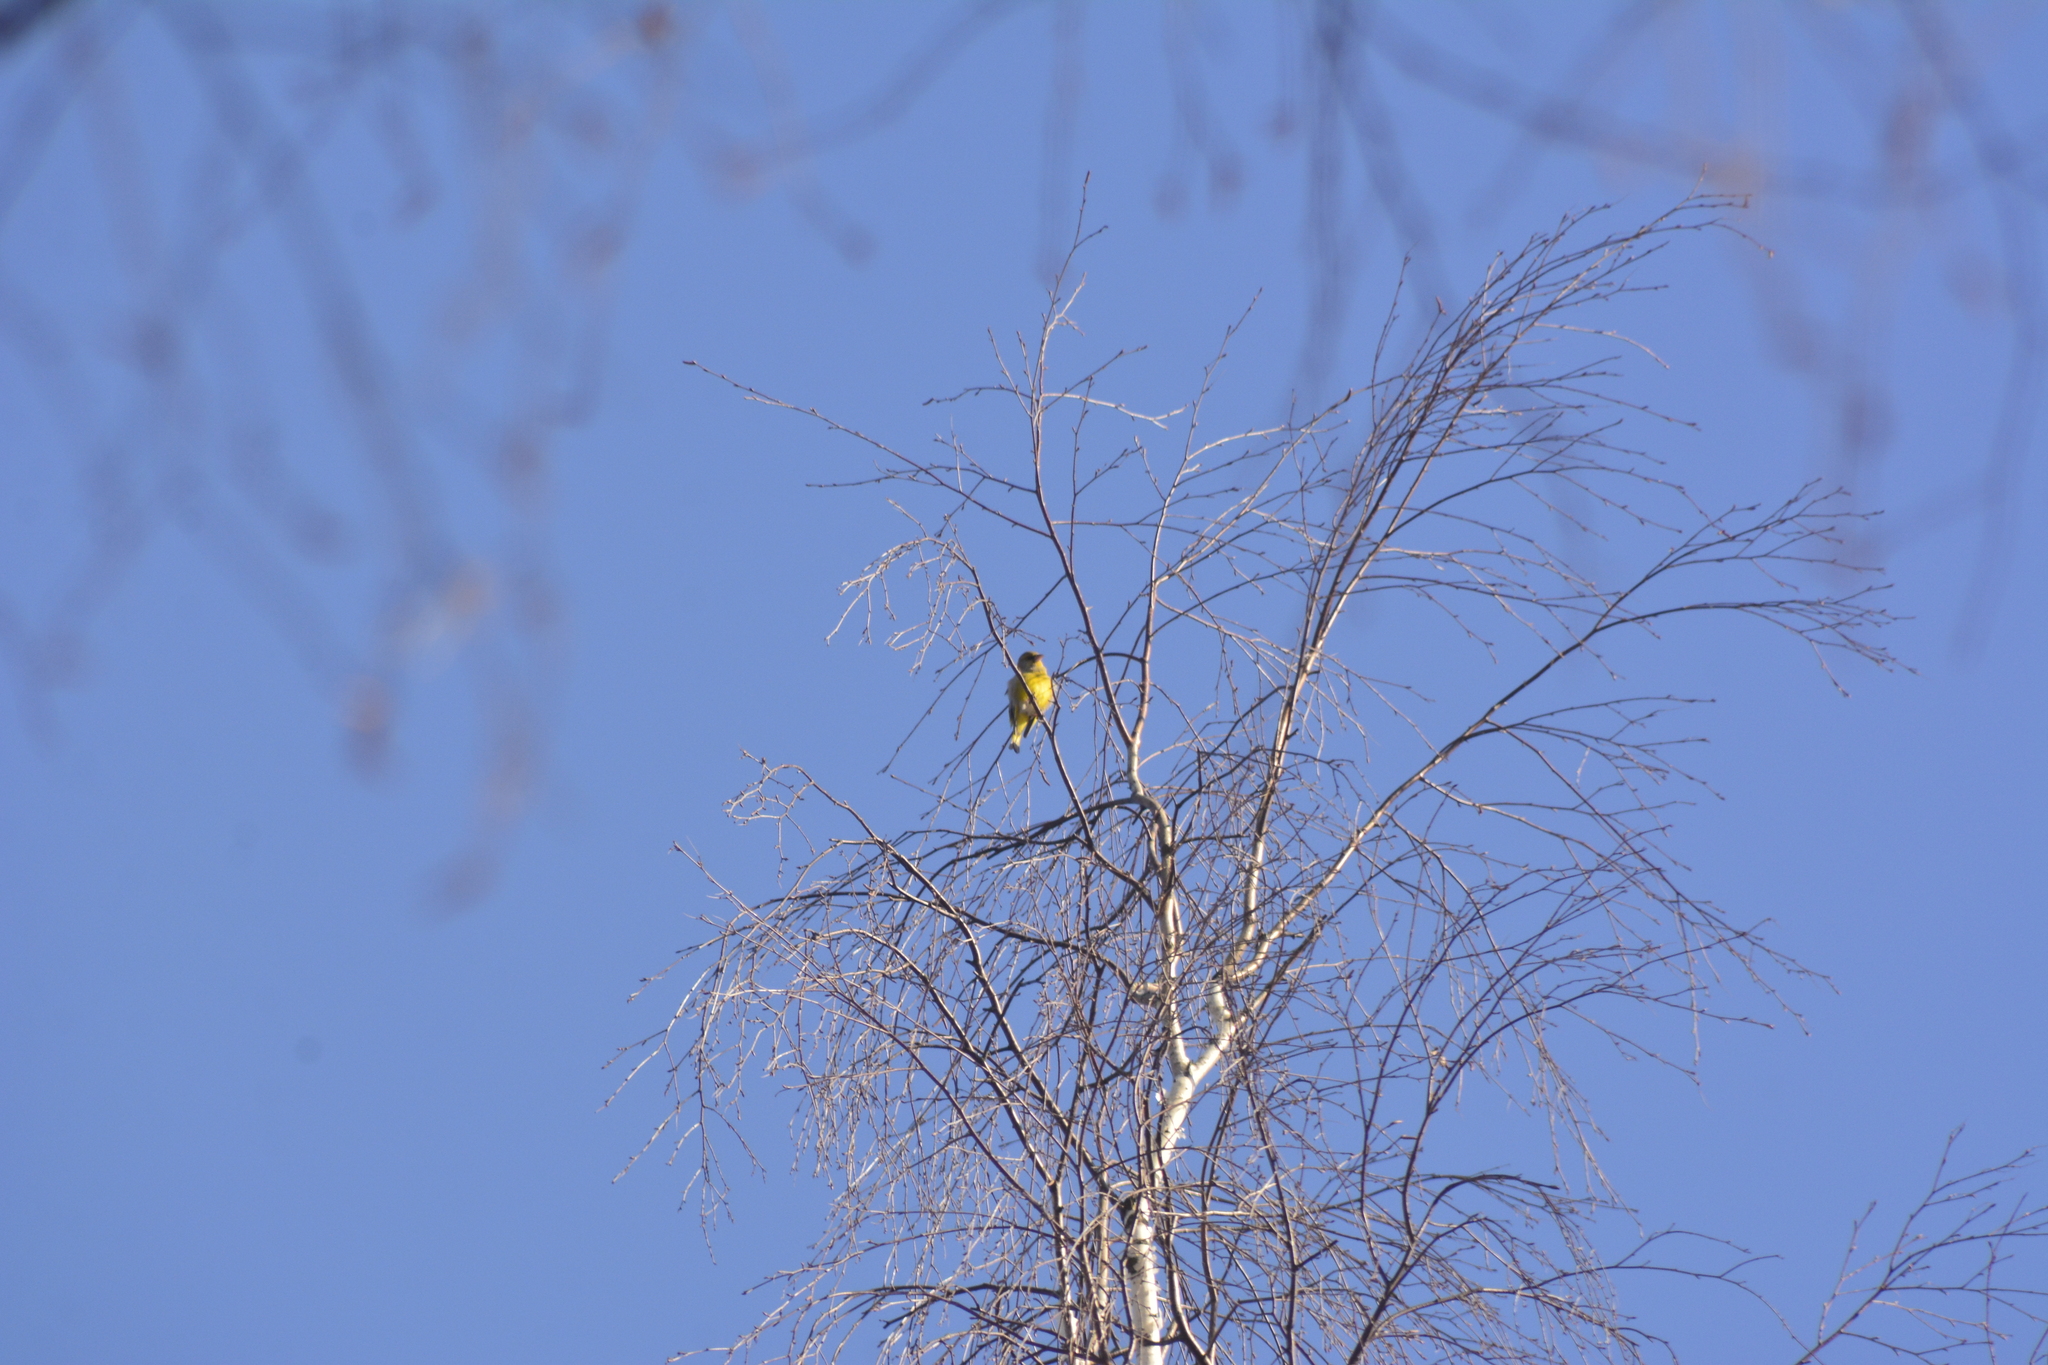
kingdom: Plantae
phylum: Tracheophyta
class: Liliopsida
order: Poales
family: Poaceae
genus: Chloris
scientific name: Chloris chloris
